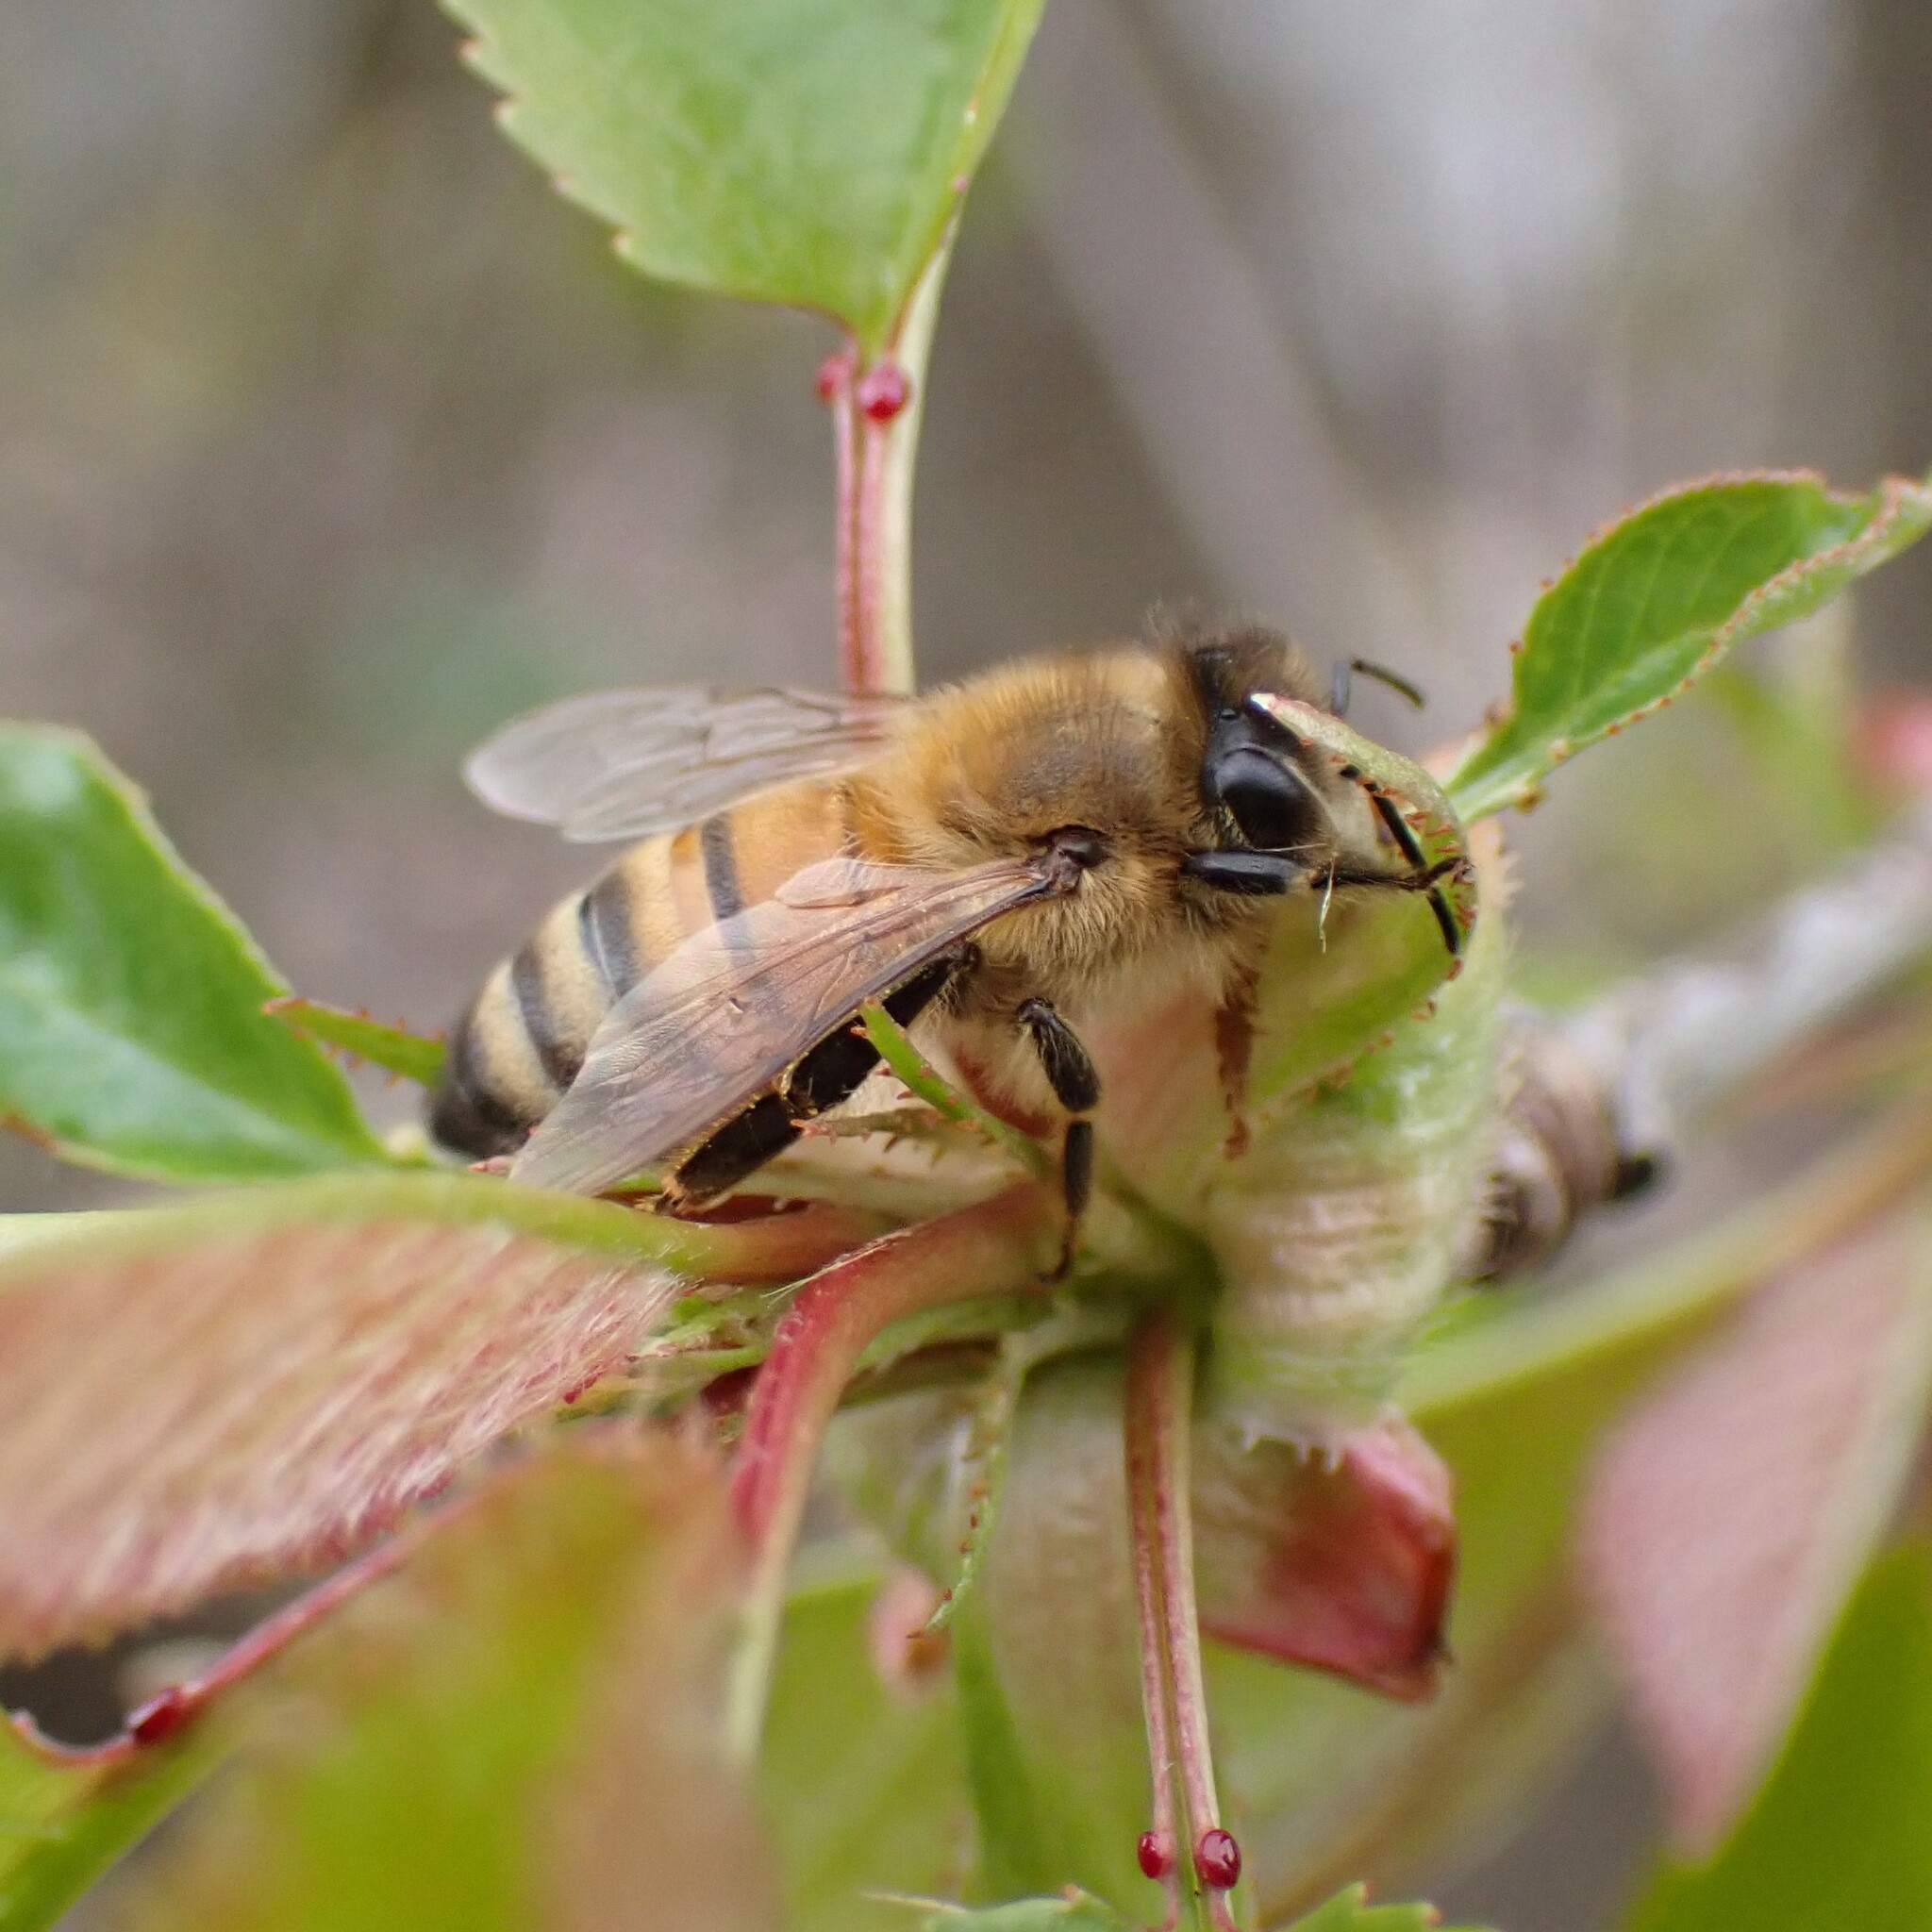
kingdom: Animalia
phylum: Arthropoda
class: Insecta
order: Hymenoptera
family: Apidae
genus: Apis
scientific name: Apis mellifera
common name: Honey bee
